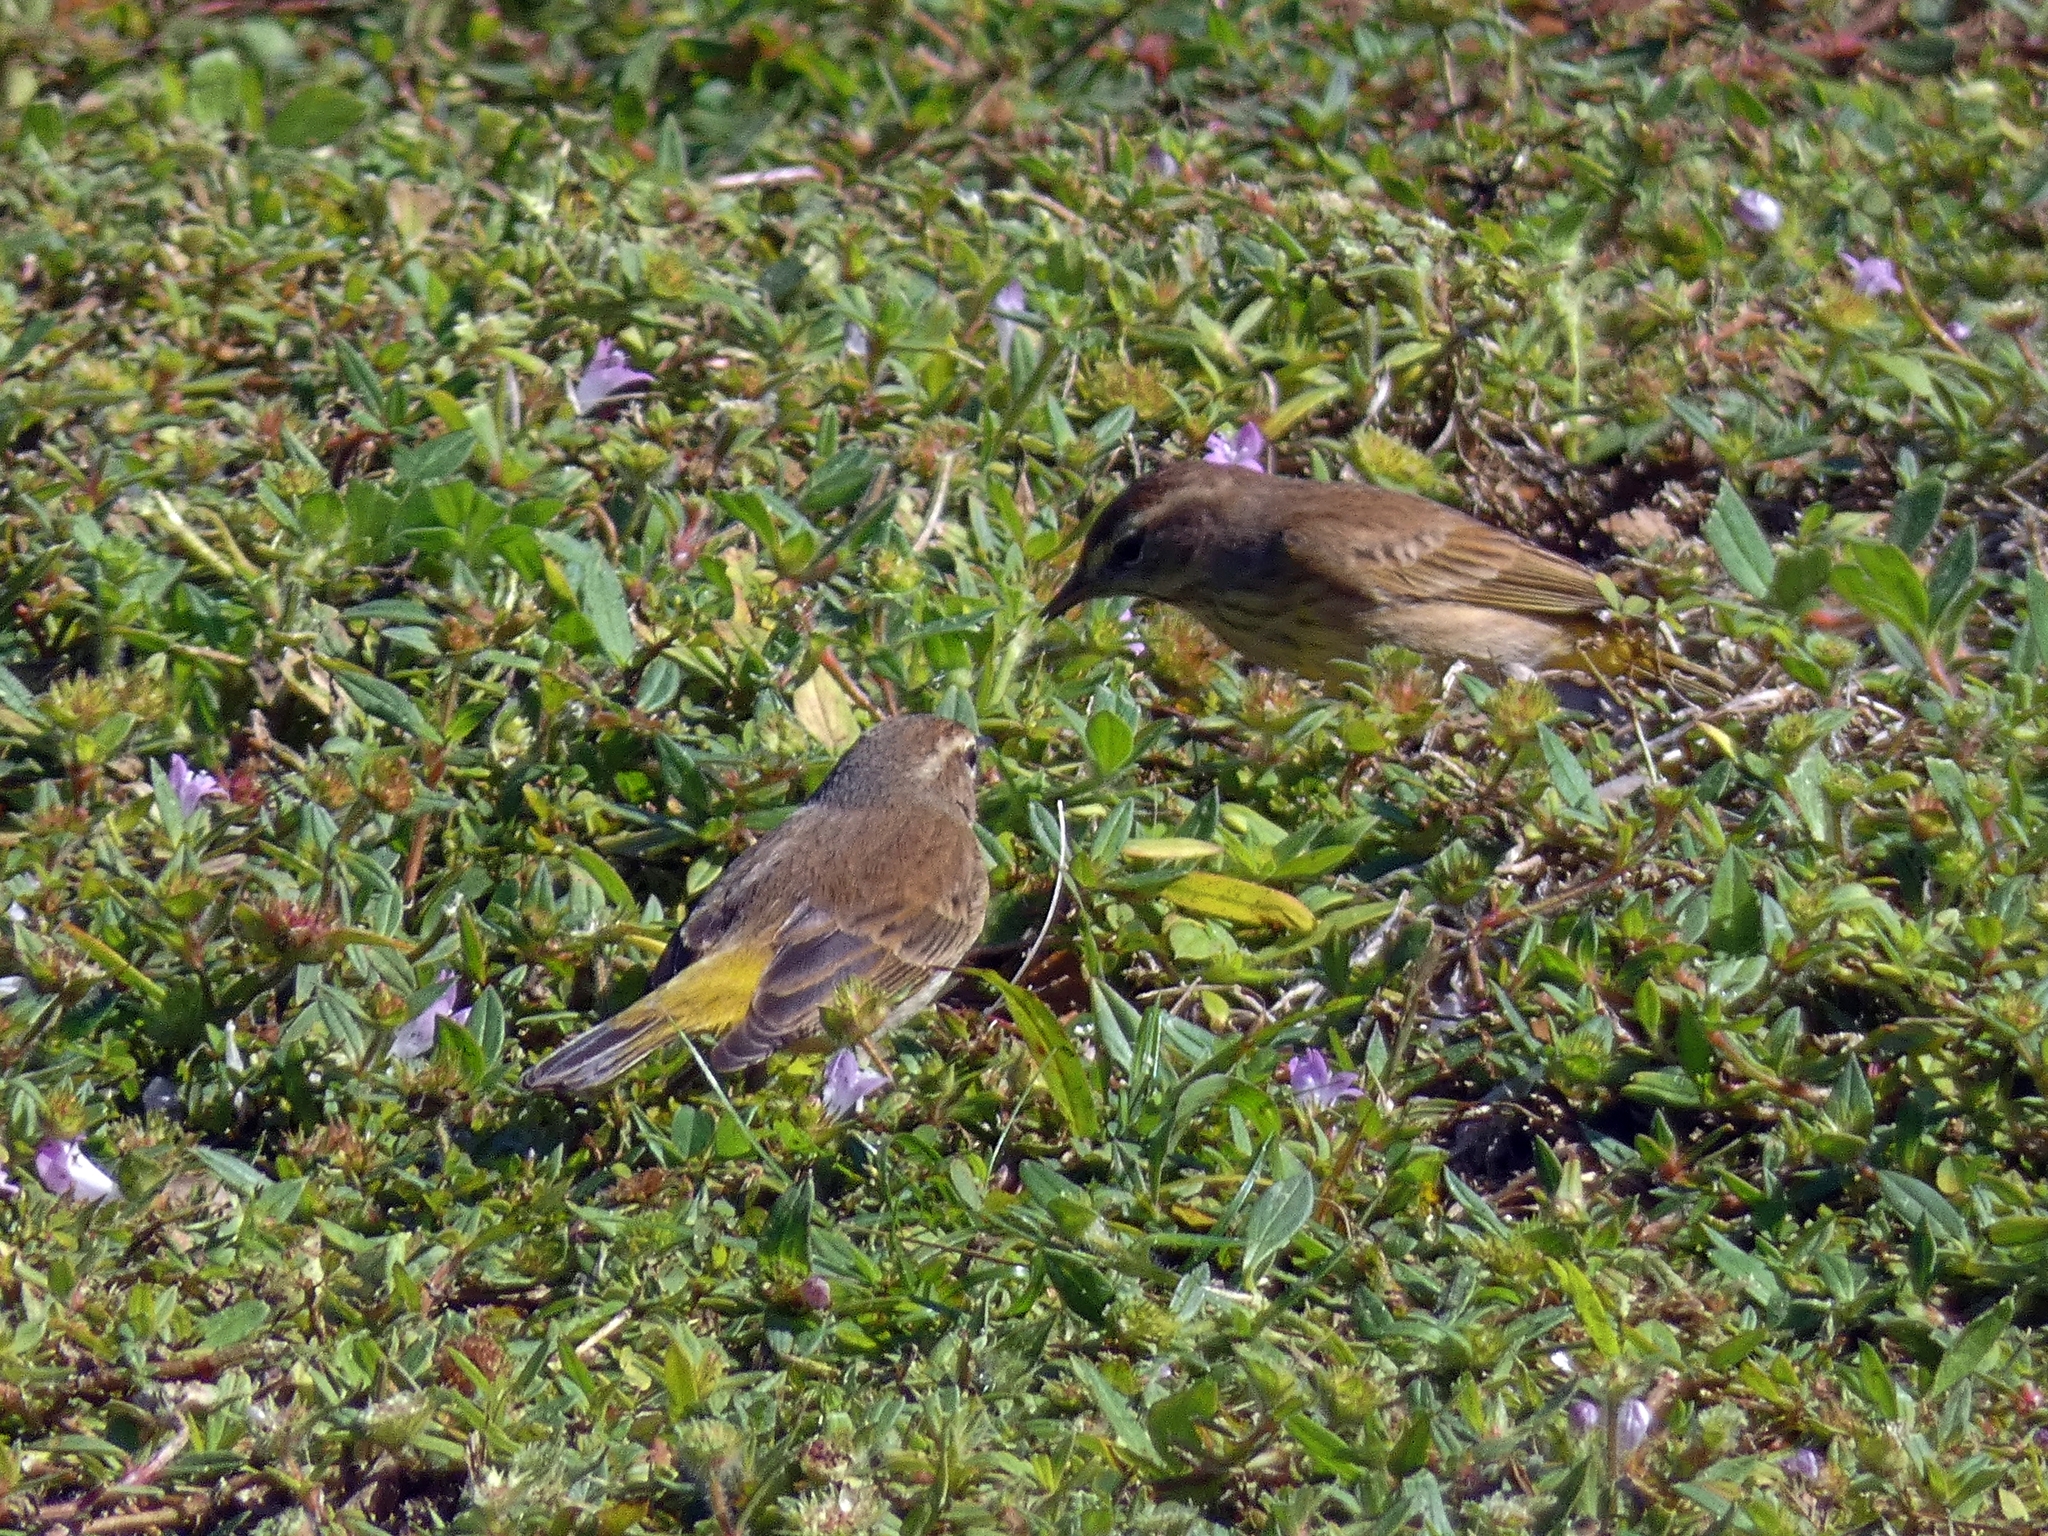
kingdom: Animalia
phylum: Chordata
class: Aves
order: Passeriformes
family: Parulidae
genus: Setophaga
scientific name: Setophaga palmarum
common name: Palm warbler
